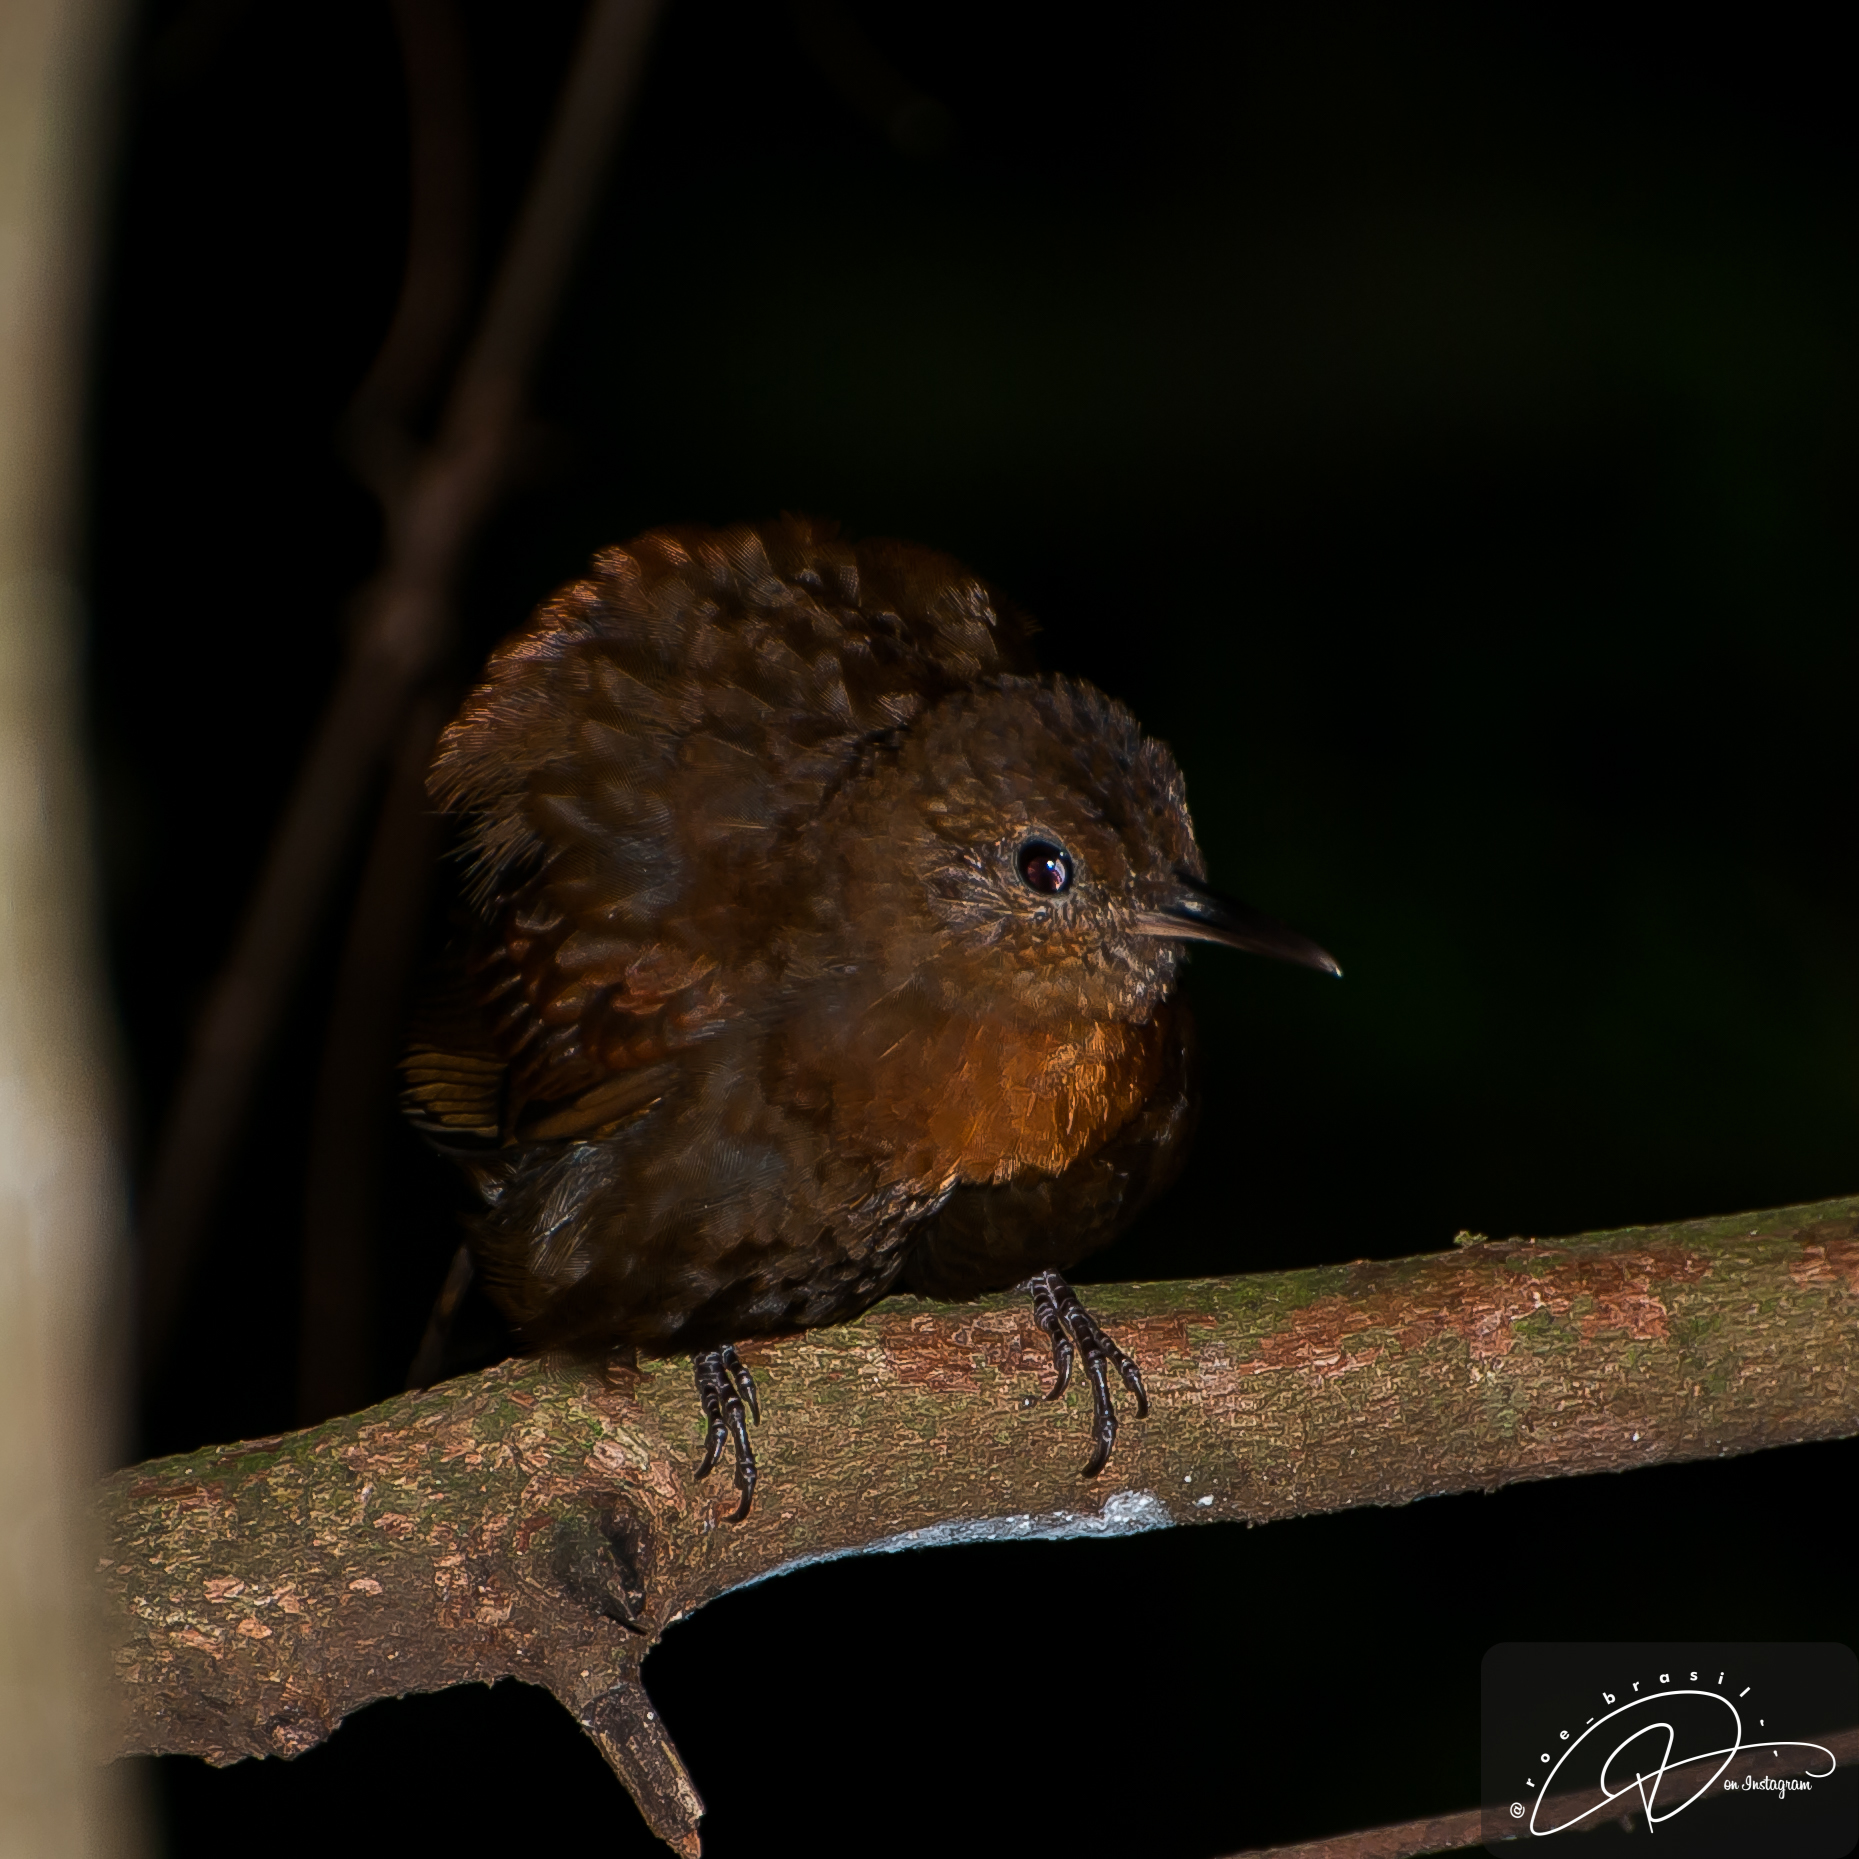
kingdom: Animalia
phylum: Chordata
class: Aves
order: Passeriformes
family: Furnariidae
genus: Sclerurus
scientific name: Sclerurus scansor
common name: Rufous-breasted leaftosser
